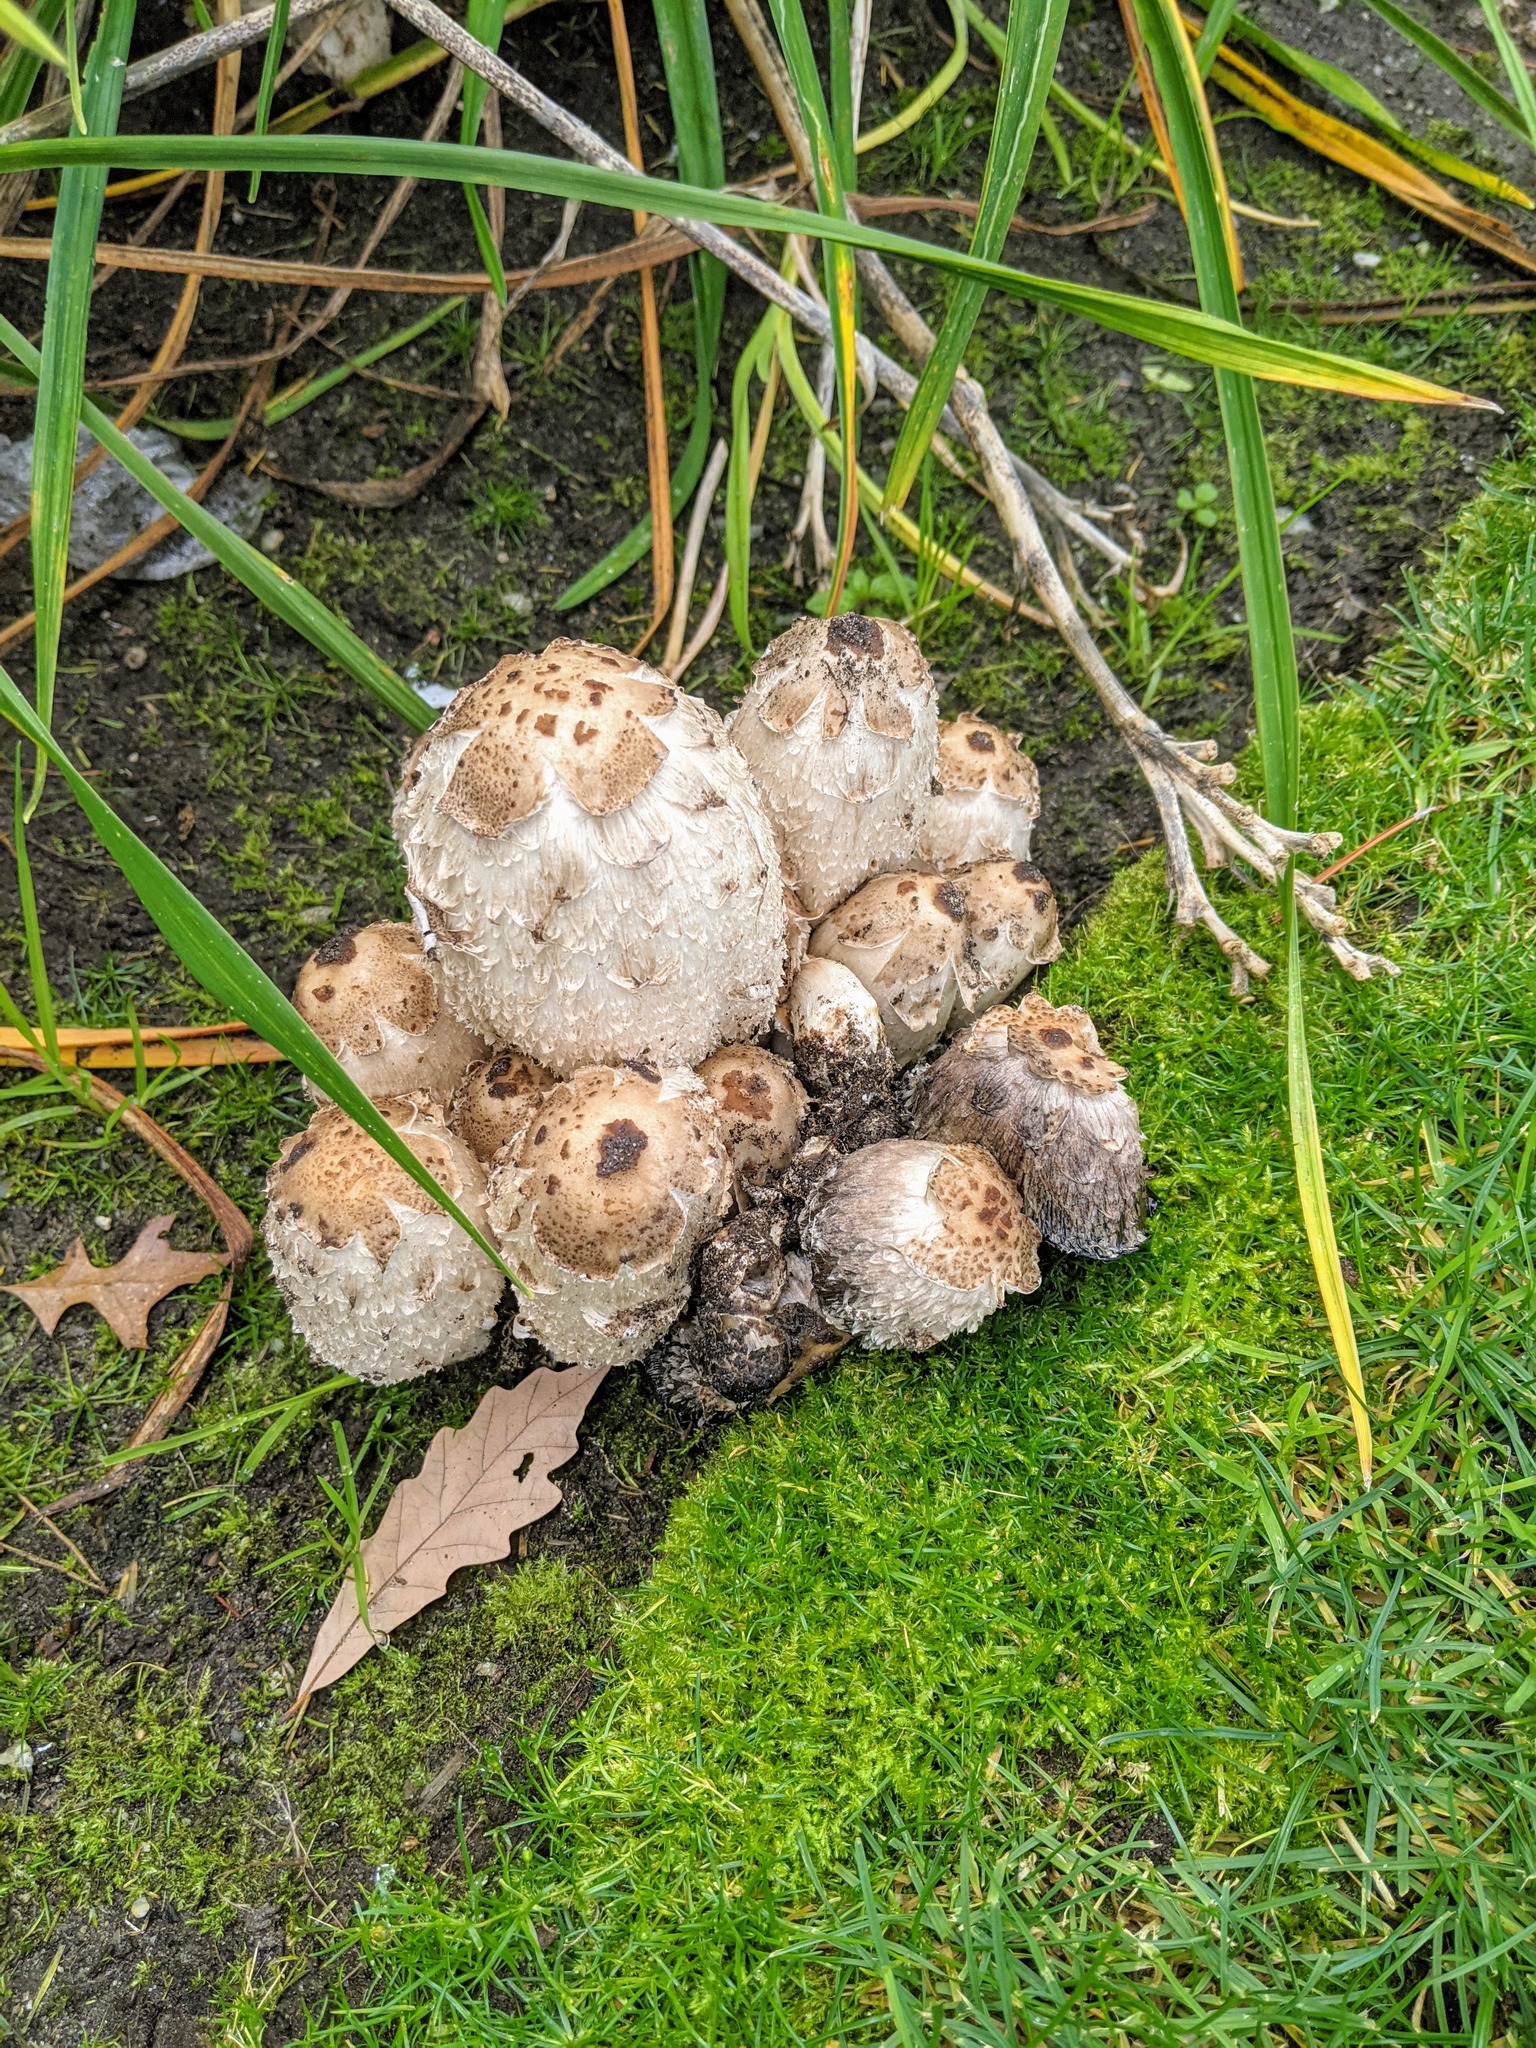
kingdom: Fungi
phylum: Basidiomycota
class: Agaricomycetes
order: Agaricales
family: Agaricaceae
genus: Coprinus
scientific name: Coprinus comatus
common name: Lawyer's wig
